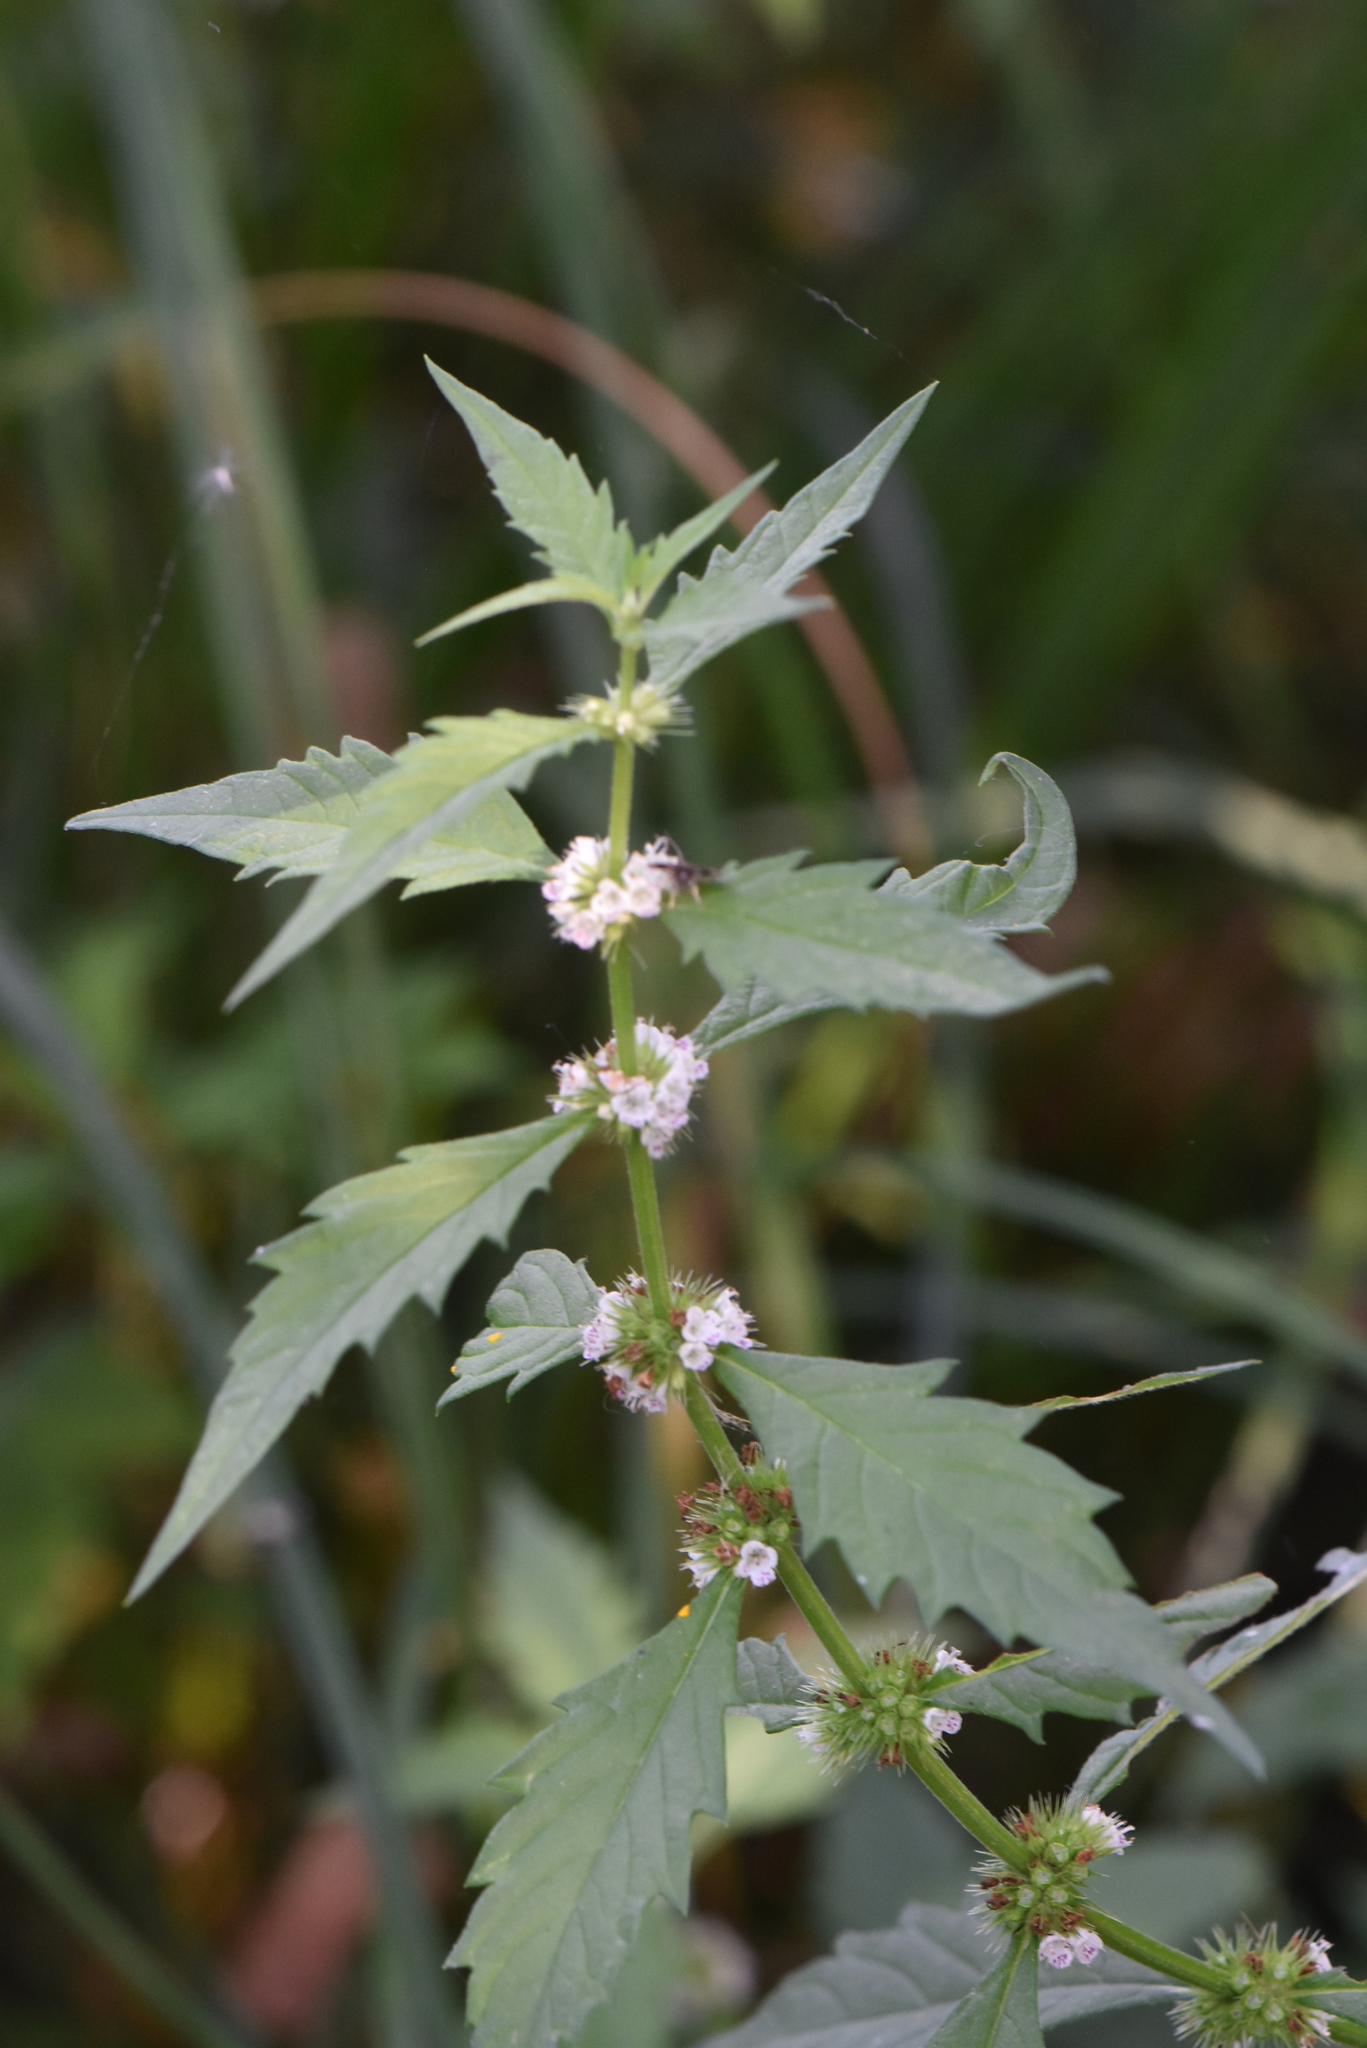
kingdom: Plantae
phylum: Tracheophyta
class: Magnoliopsida
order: Lamiales
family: Lamiaceae
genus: Lycopus
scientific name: Lycopus europaeus
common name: European bugleweed
